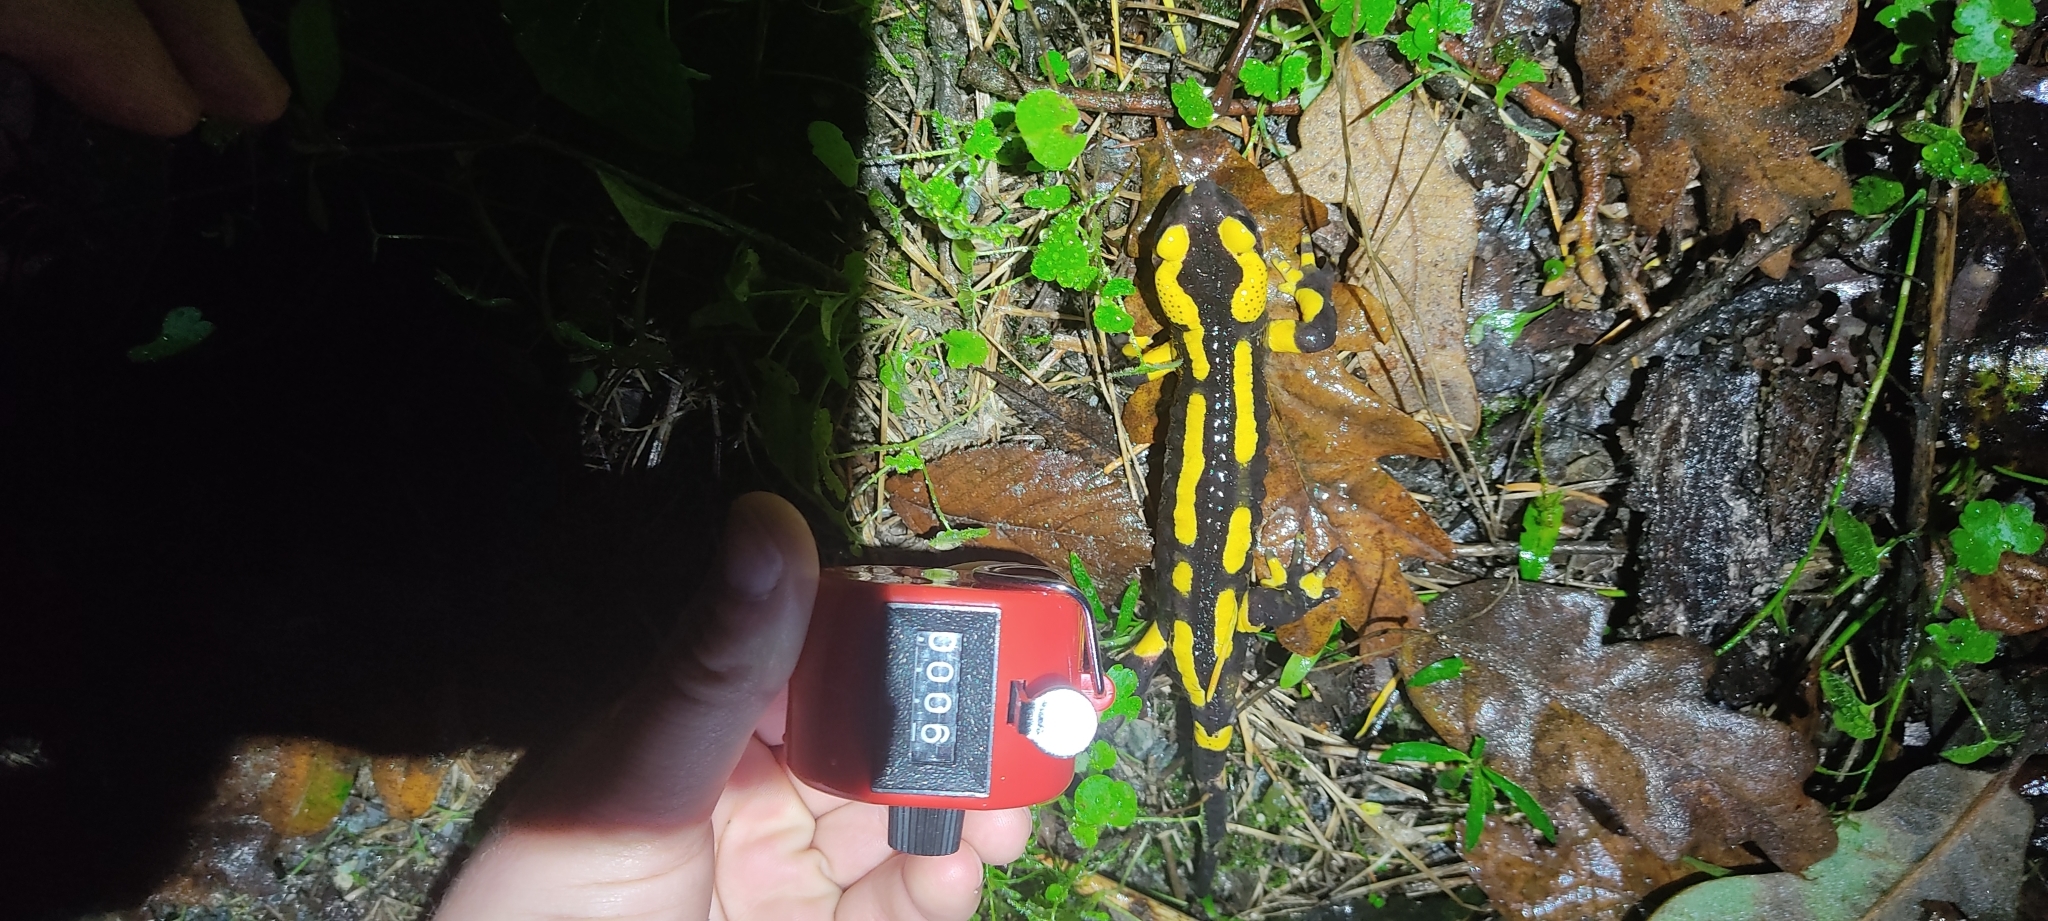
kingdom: Animalia
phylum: Chordata
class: Amphibia
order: Caudata
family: Salamandridae
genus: Salamandra
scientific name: Salamandra salamandra
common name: Fire salamander
